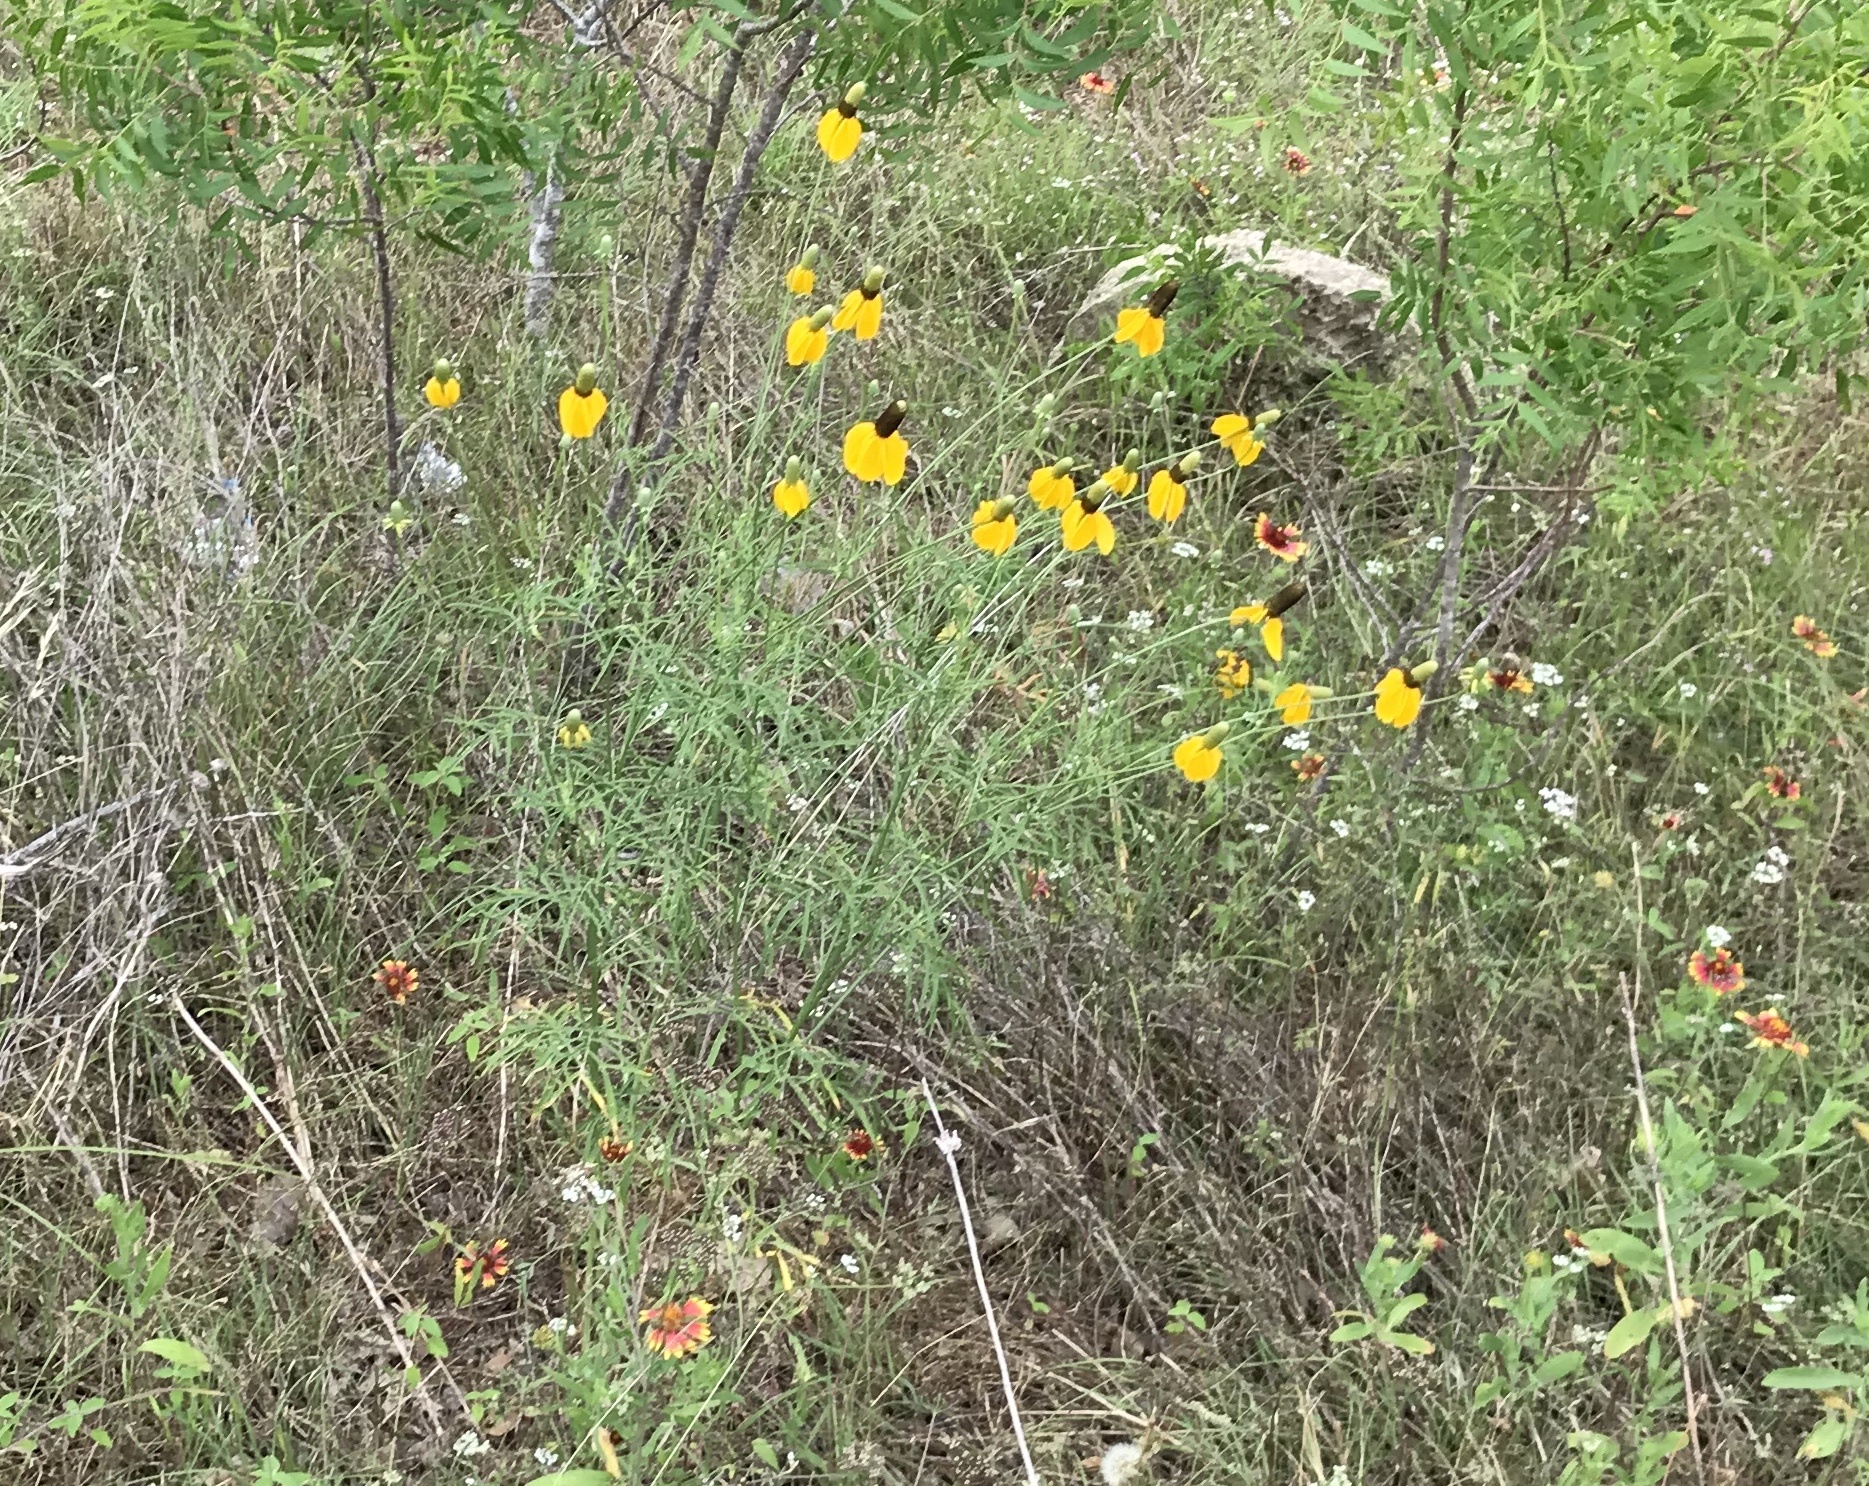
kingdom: Plantae
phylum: Tracheophyta
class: Magnoliopsida
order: Asterales
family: Asteraceae
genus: Ratibida
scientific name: Ratibida columnifera
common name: Prairie coneflower
